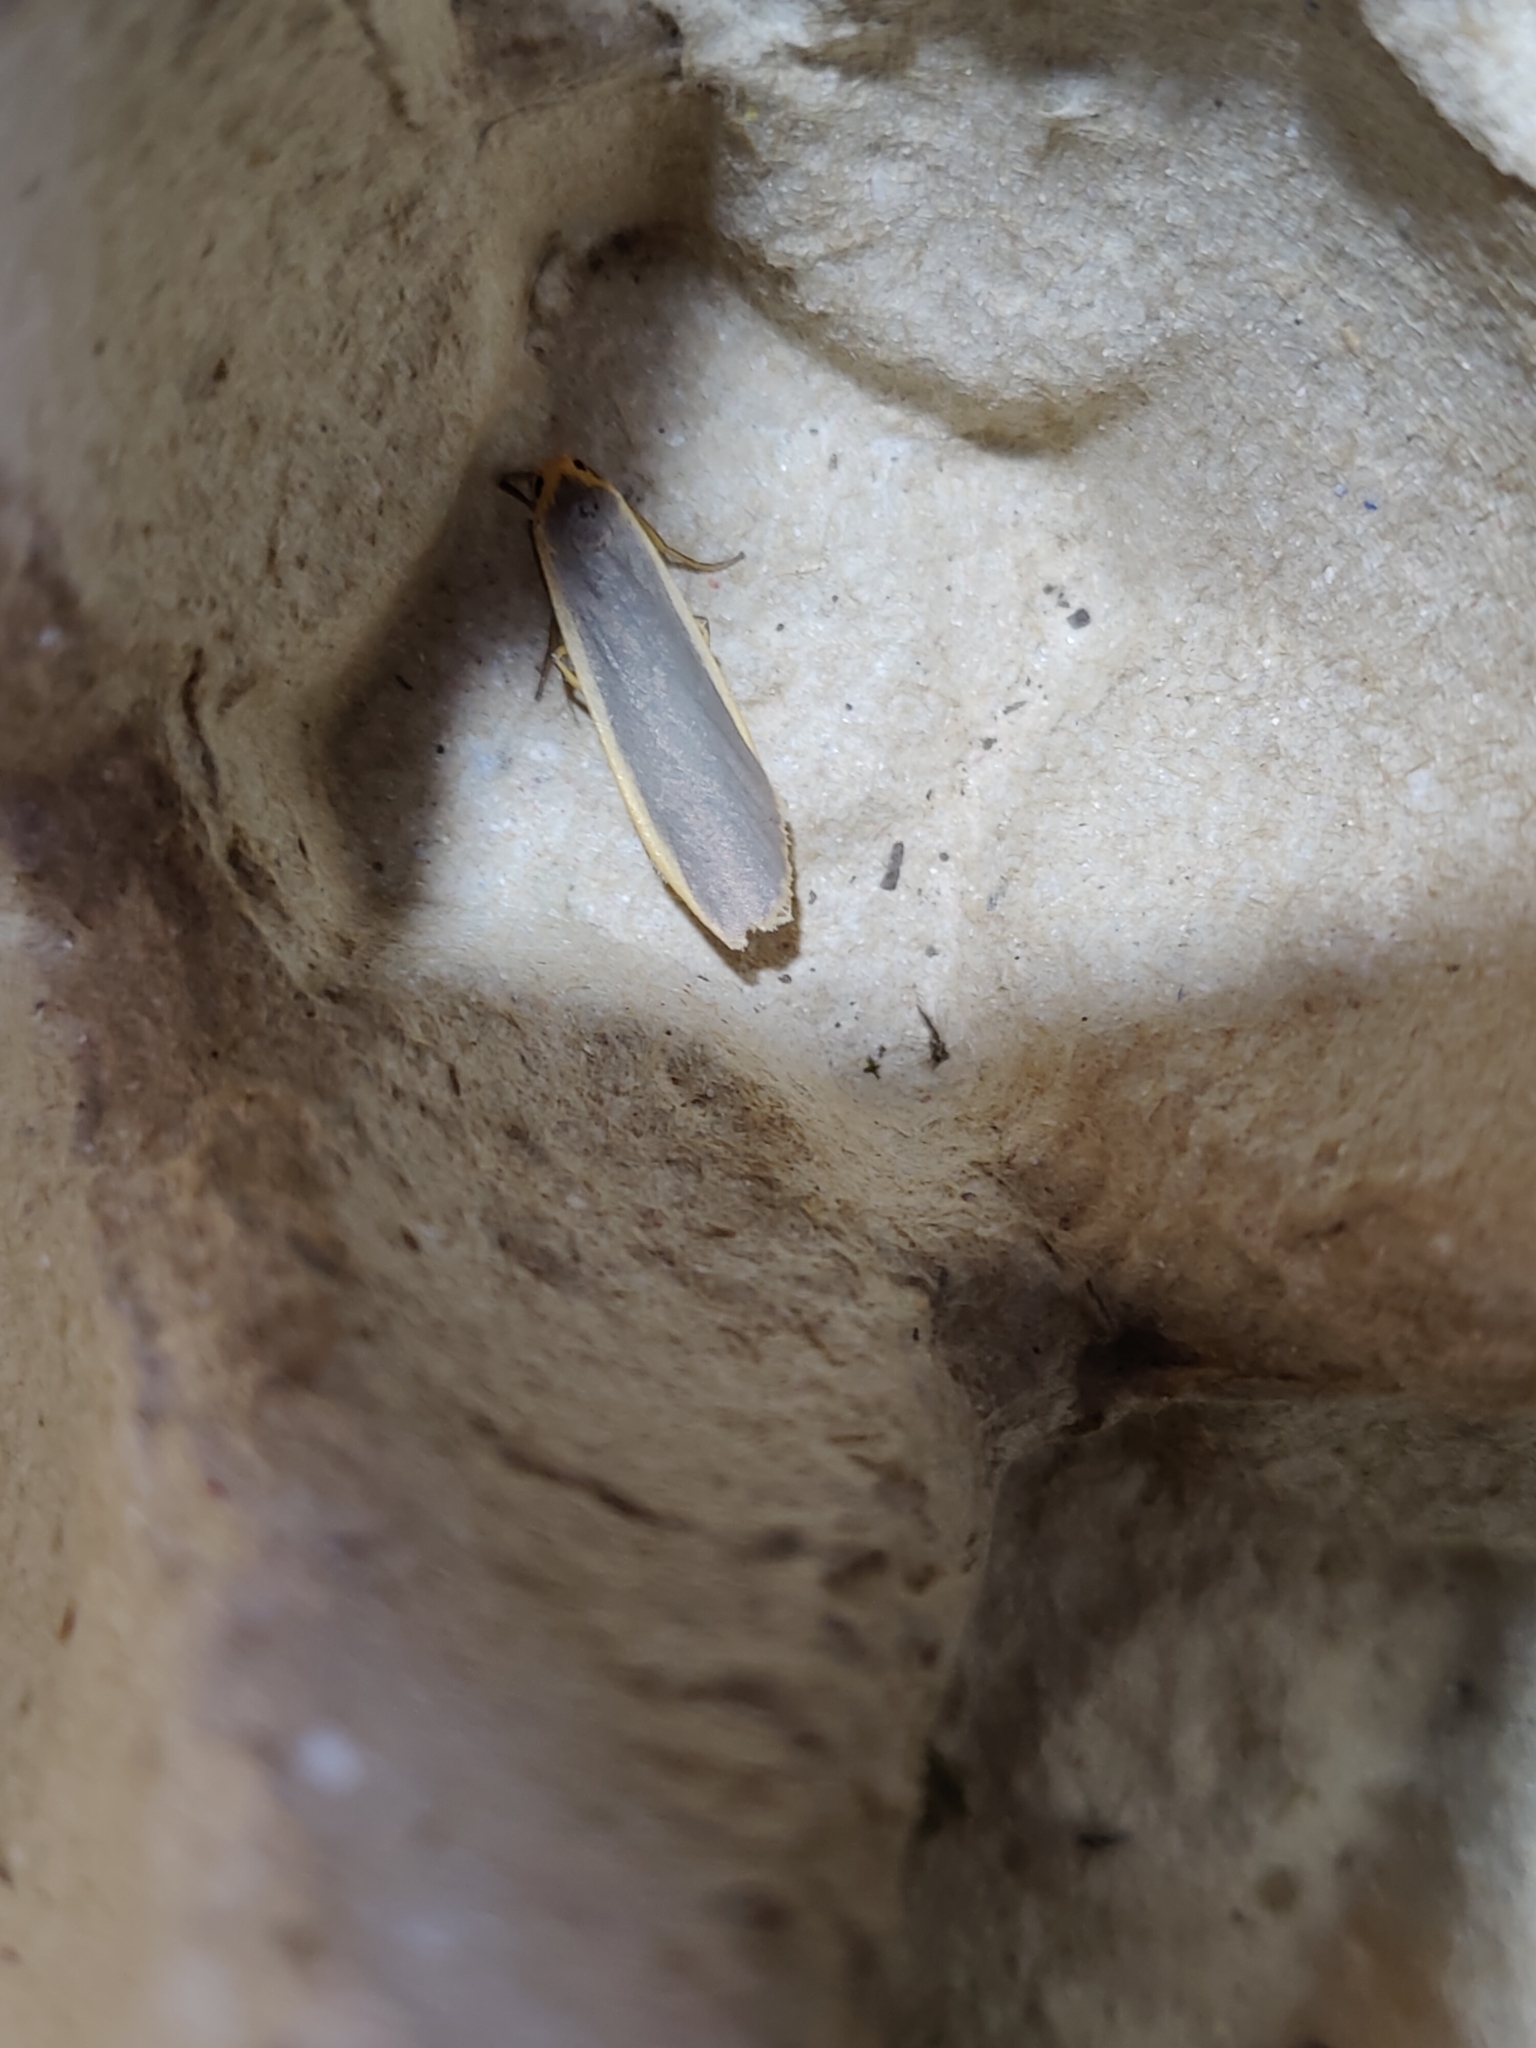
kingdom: Animalia
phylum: Arthropoda
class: Insecta
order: Lepidoptera
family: Erebidae
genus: Nyea
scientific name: Nyea lurideola
